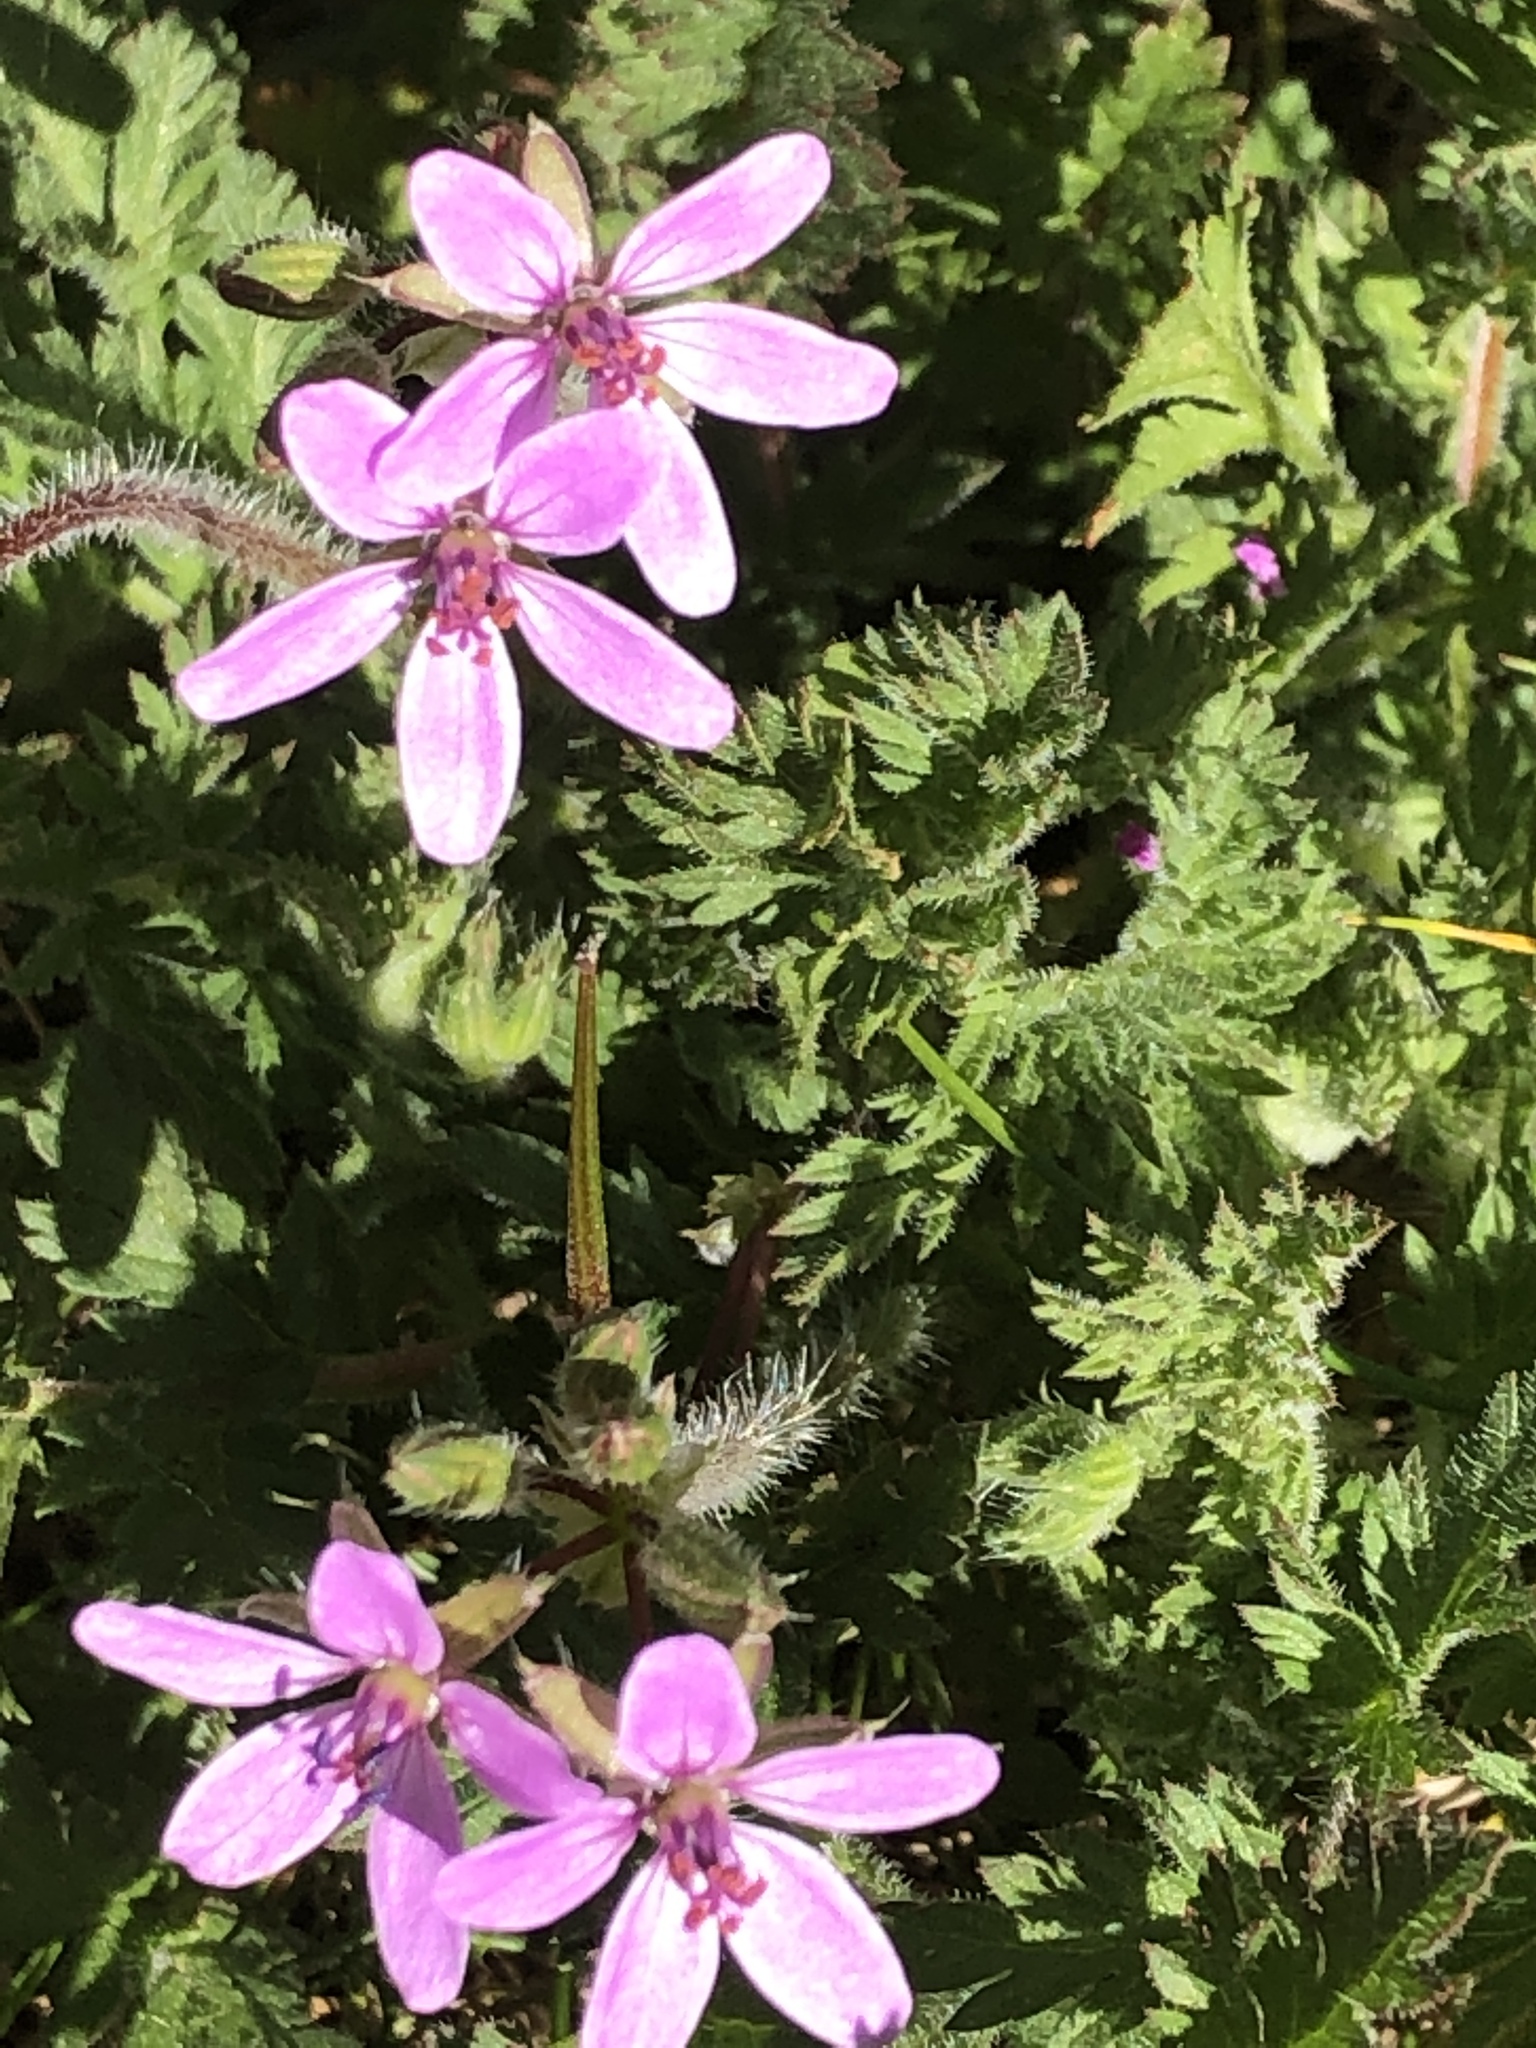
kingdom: Plantae
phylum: Tracheophyta
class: Magnoliopsida
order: Geraniales
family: Geraniaceae
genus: Erodium
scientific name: Erodium cicutarium
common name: Common stork's-bill
